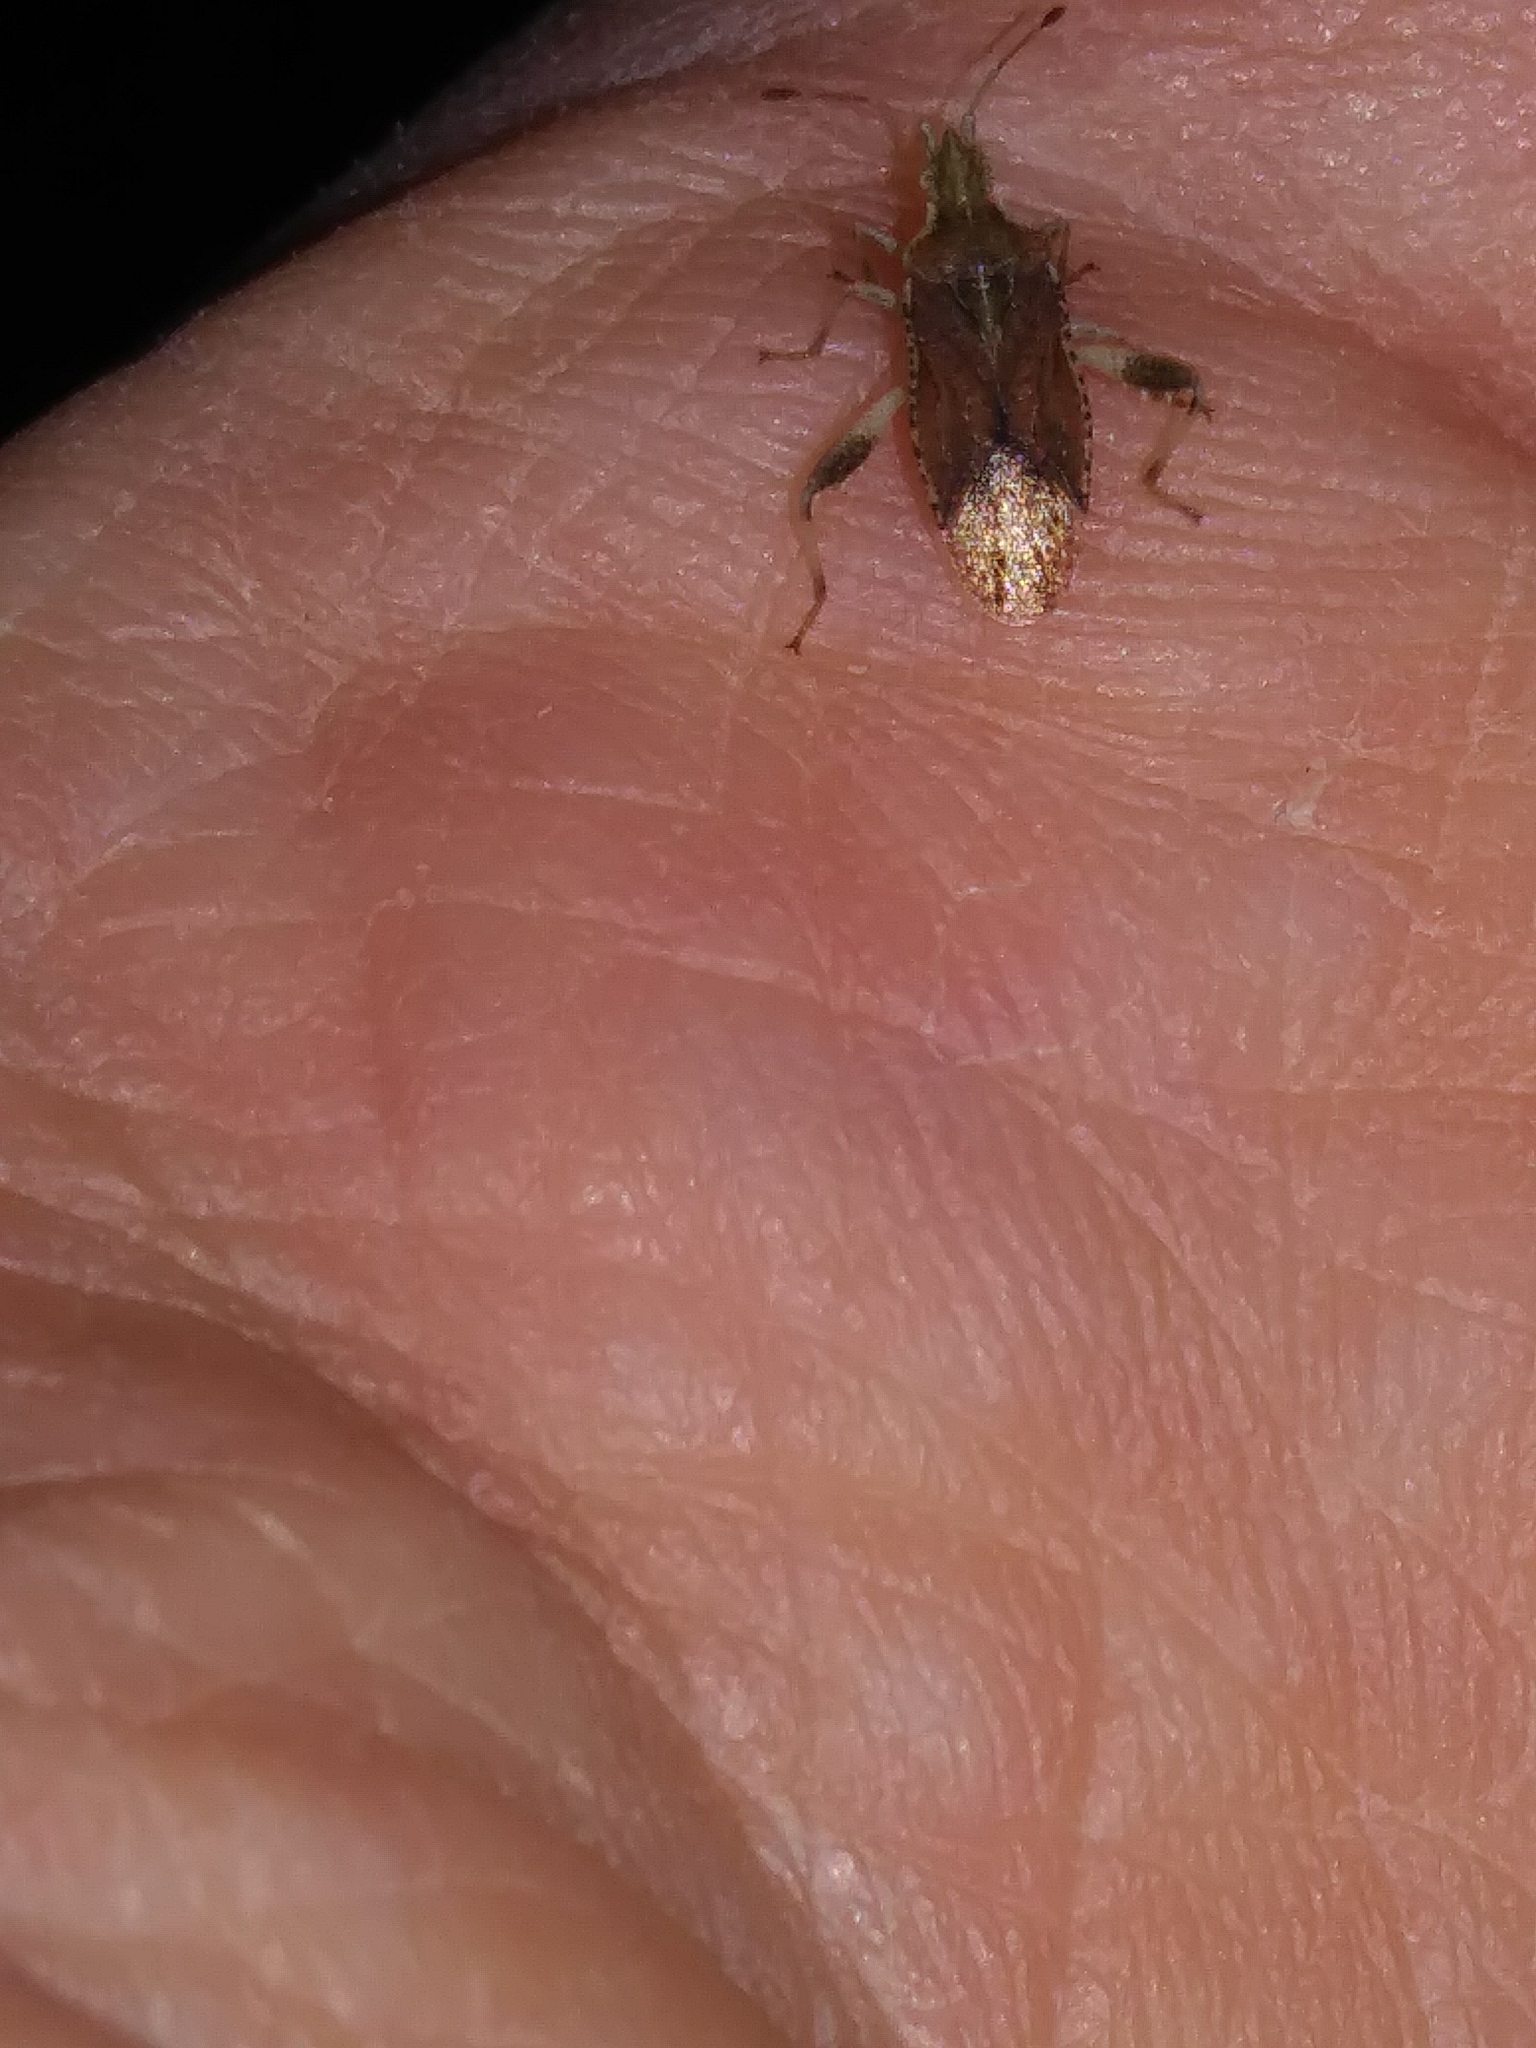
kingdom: Animalia
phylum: Arthropoda
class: Insecta
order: Hemiptera
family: Rhopalidae
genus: Harmostes
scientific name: Harmostes fraterculus
